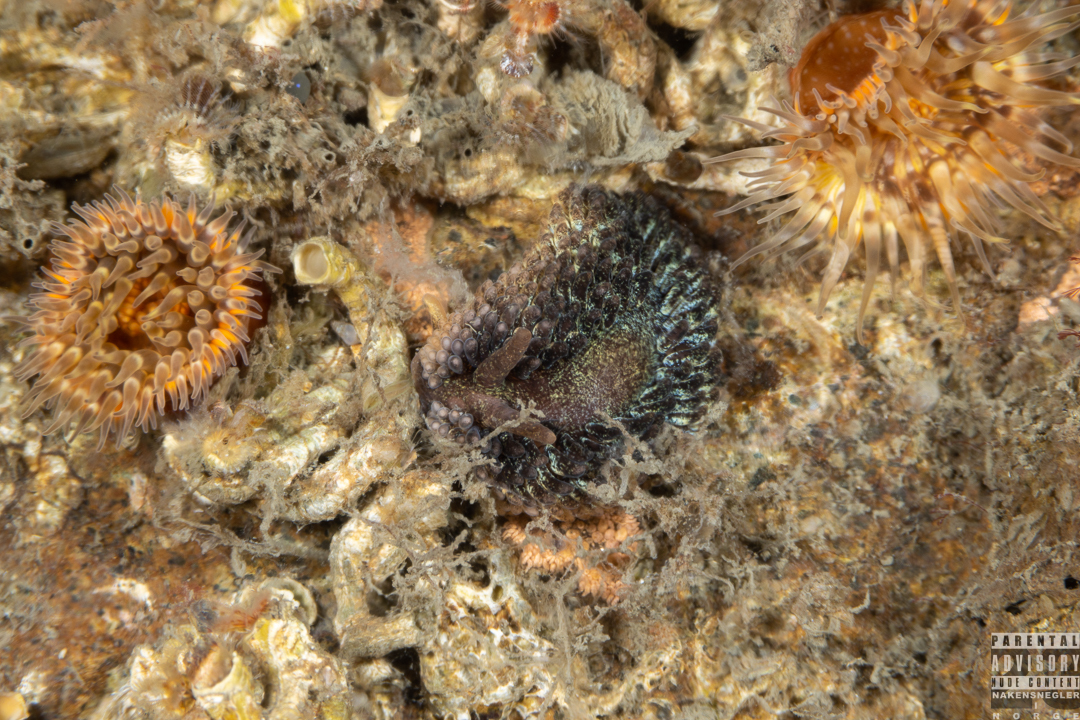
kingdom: Animalia
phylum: Mollusca
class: Gastropoda
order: Nudibranchia
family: Aeolidiidae
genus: Aeolidia
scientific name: Aeolidia papillosa
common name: Common grey sea slug
